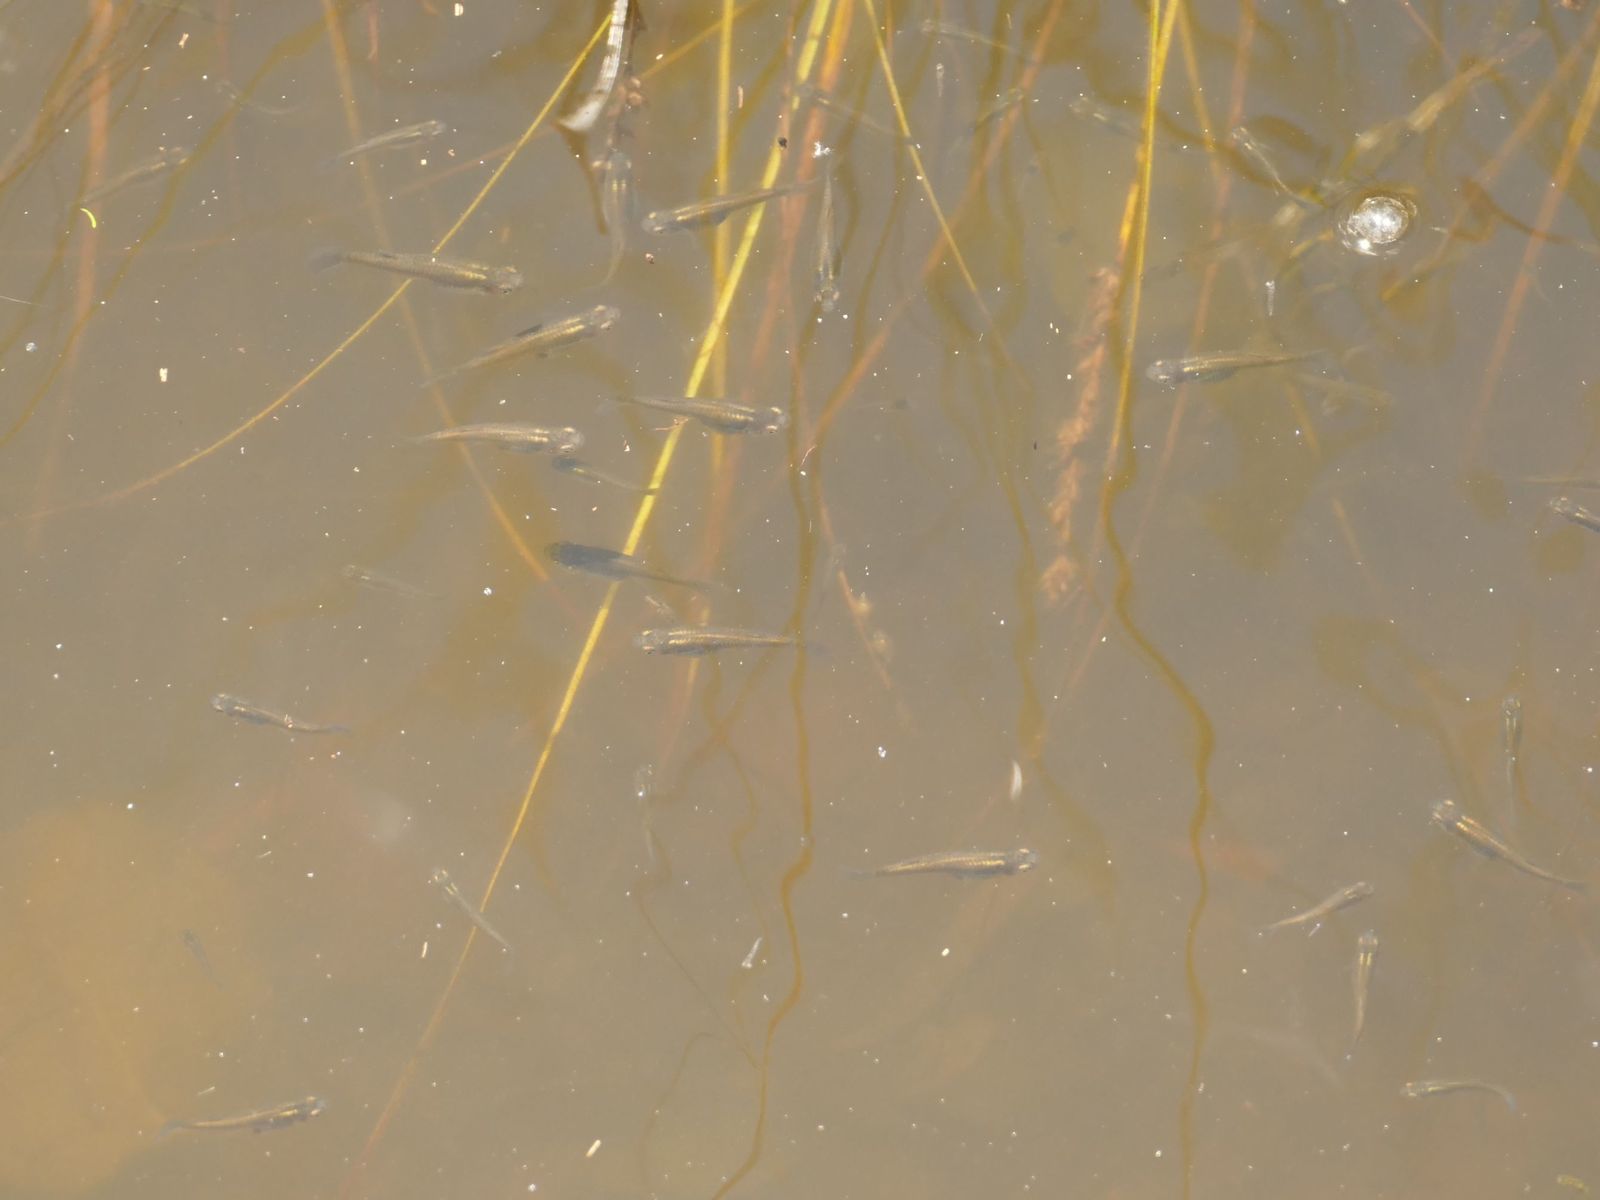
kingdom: Animalia
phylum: Chordata
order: Cyprinodontiformes
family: Poeciliidae
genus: Gambusia
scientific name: Gambusia holbrooki
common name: Eastern mosquitofish
